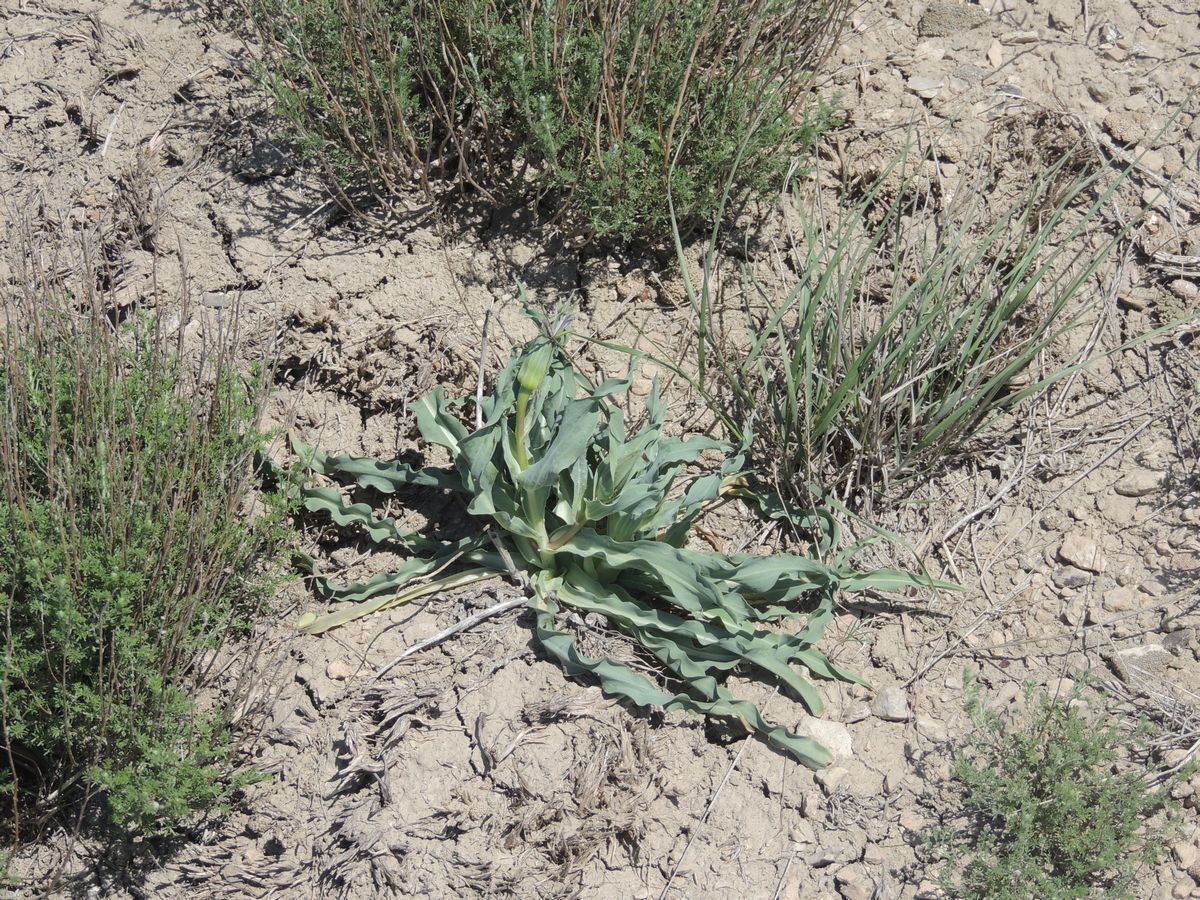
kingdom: Plantae
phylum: Tracheophyta
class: Magnoliopsida
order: Asterales
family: Asteraceae
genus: Tragopogon
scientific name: Tragopogon marginifolius
